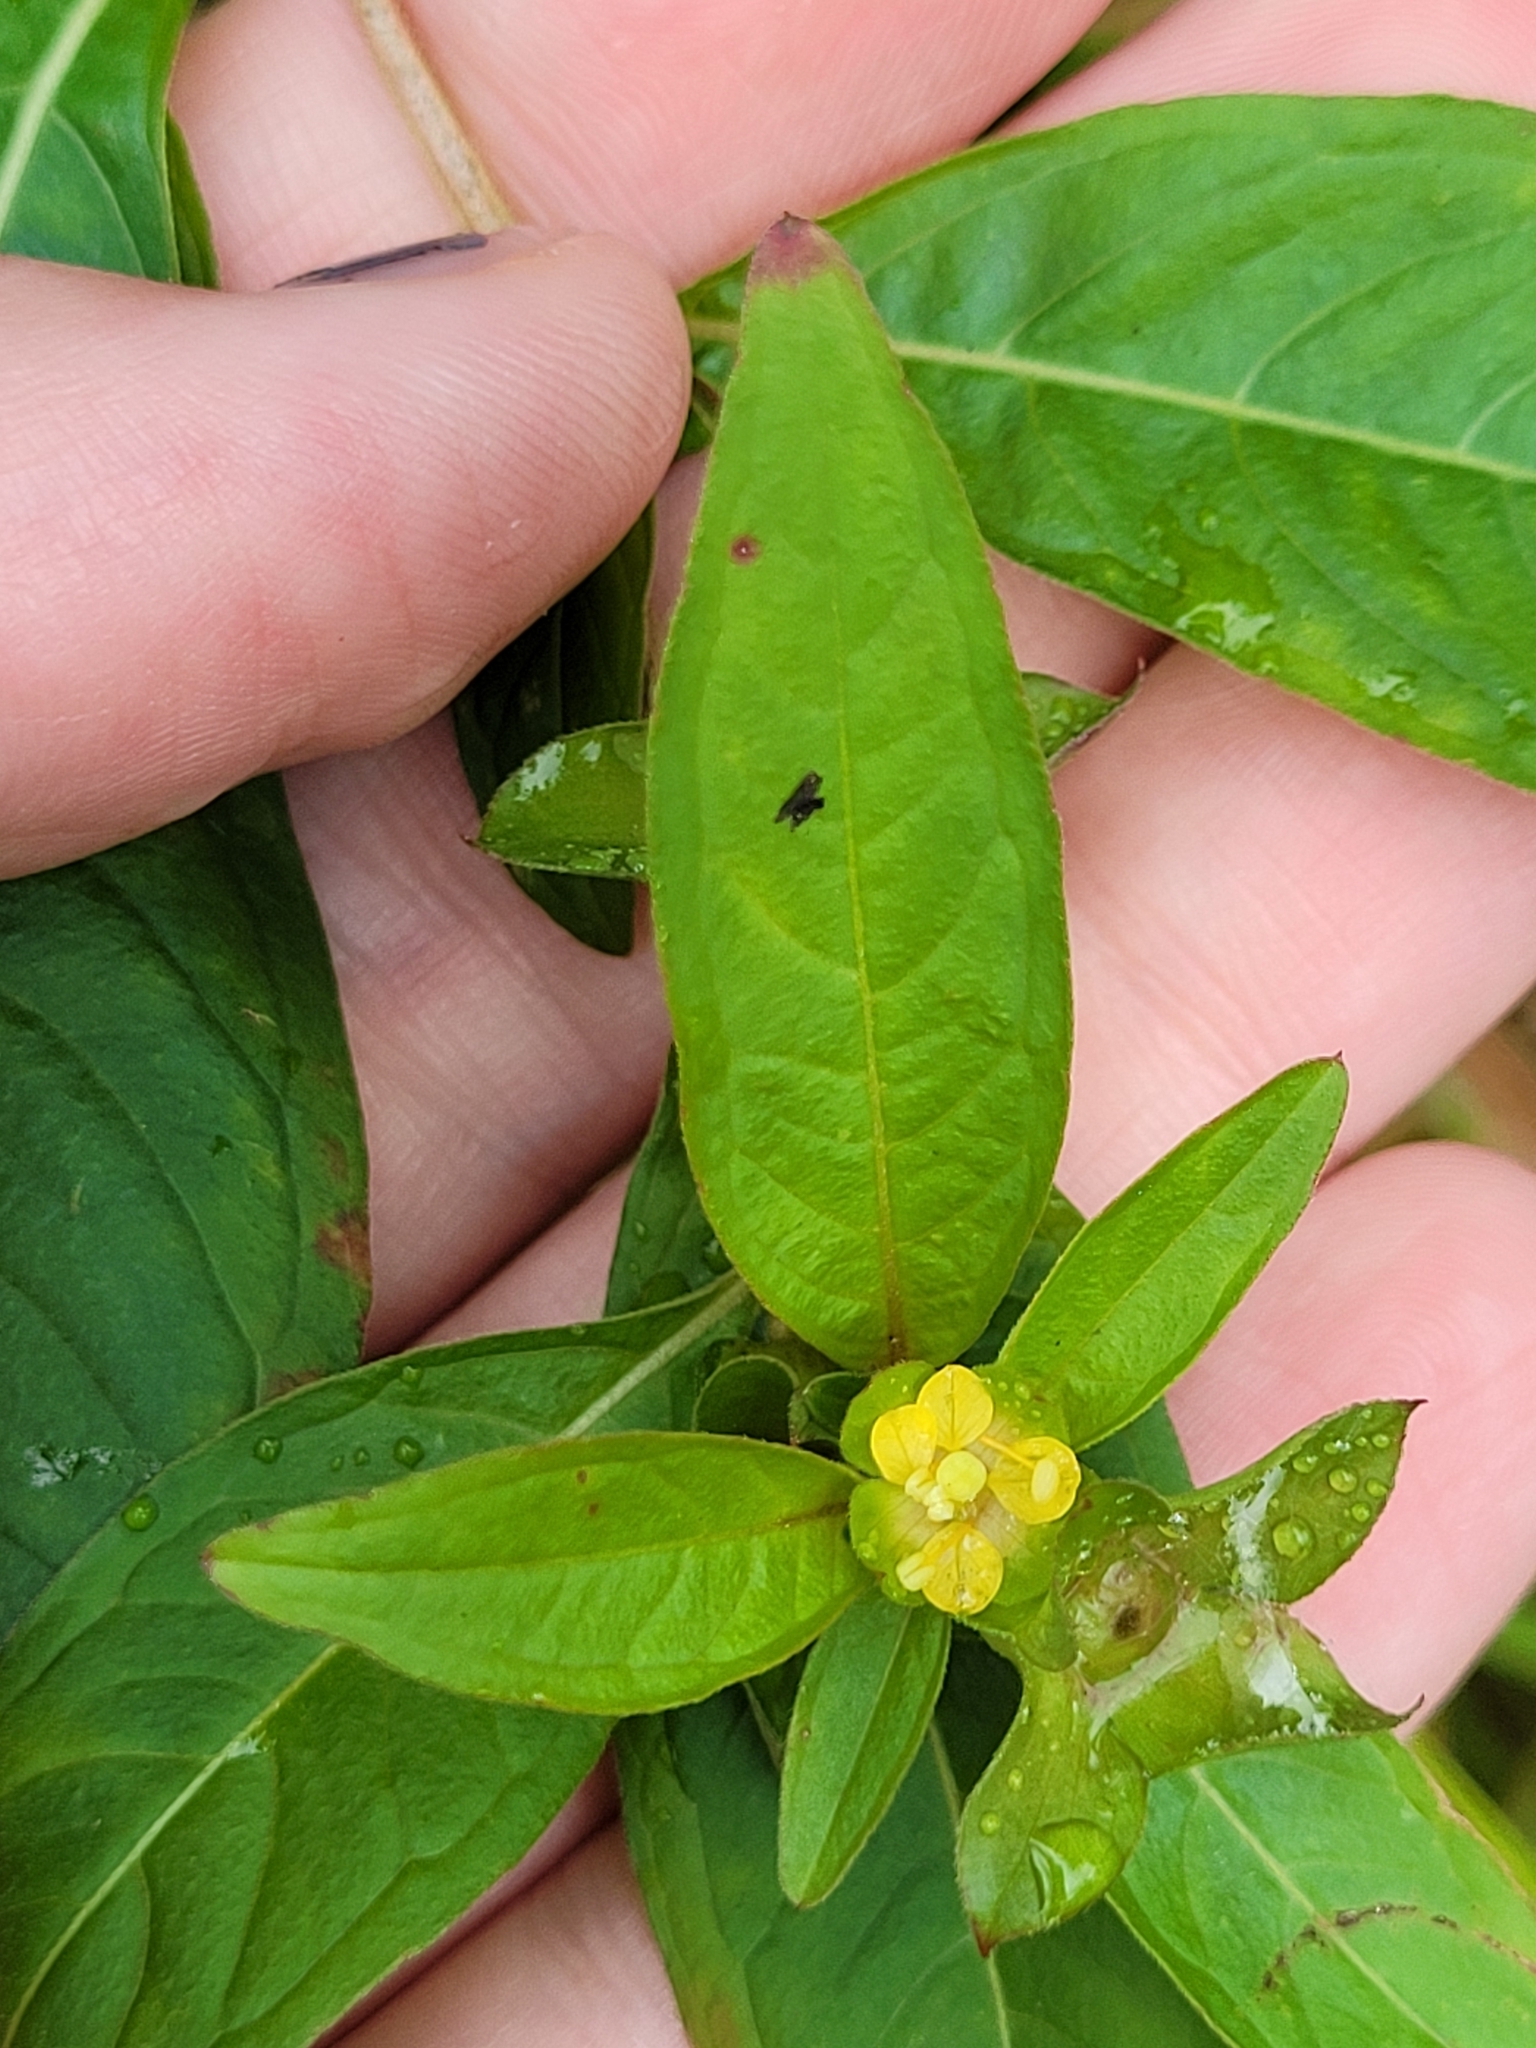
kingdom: Plantae
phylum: Tracheophyta
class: Magnoliopsida
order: Myrtales
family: Onagraceae
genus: Ludwigia
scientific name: Ludwigia alternifolia
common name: Rattlebox
